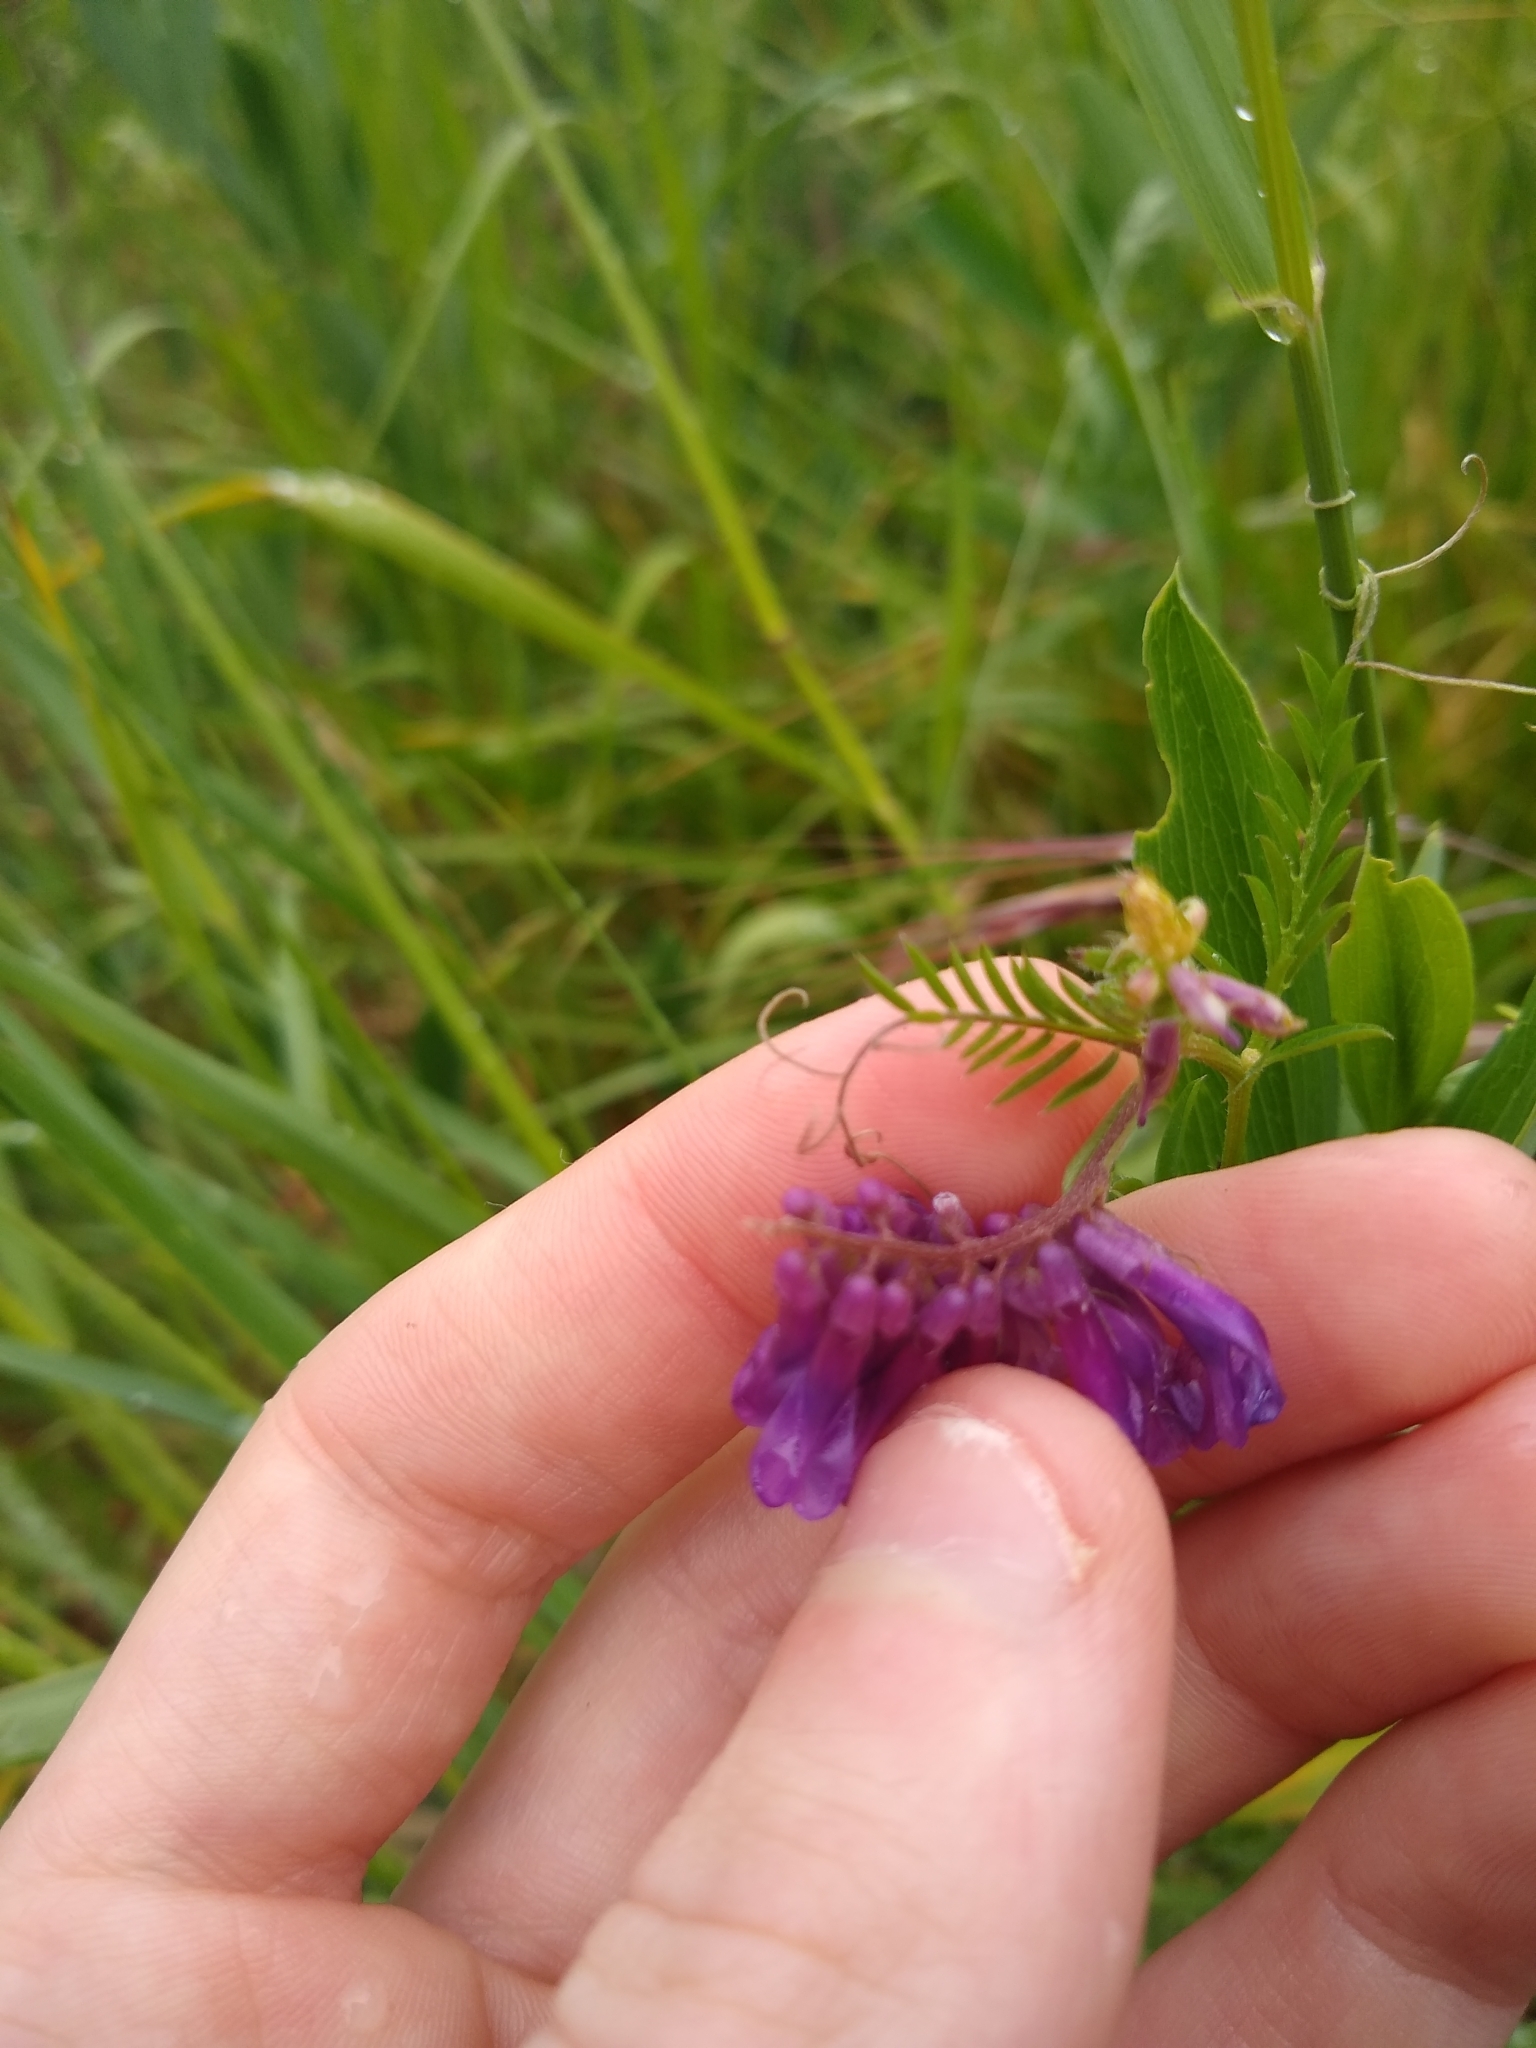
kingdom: Plantae
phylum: Tracheophyta
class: Magnoliopsida
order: Fabales
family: Fabaceae
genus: Vicia
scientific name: Vicia villosa
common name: Fodder vetch
